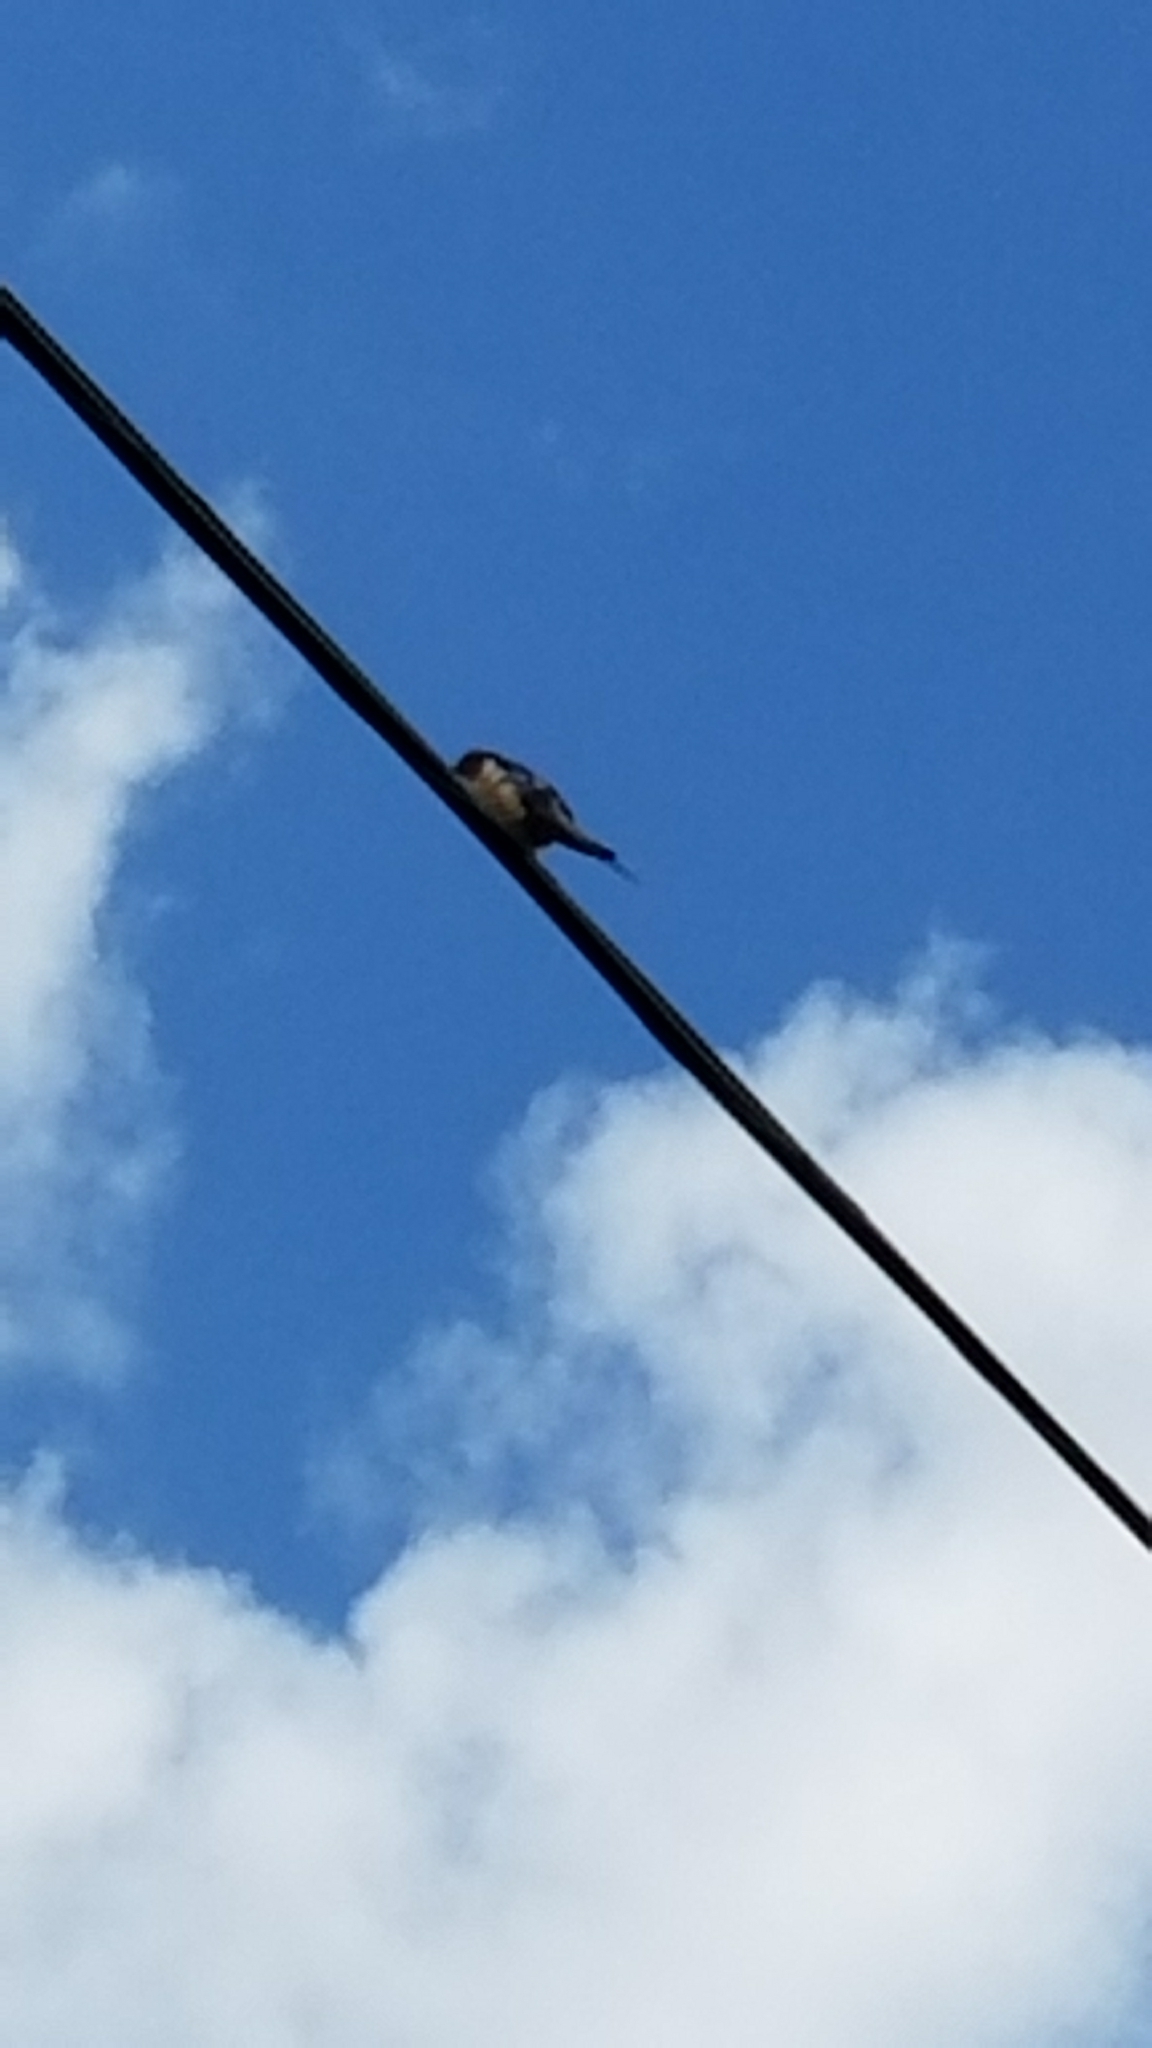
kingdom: Animalia
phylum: Chordata
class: Aves
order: Passeriformes
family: Hirundinidae
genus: Hirundo
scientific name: Hirundo rustica
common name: Barn swallow
